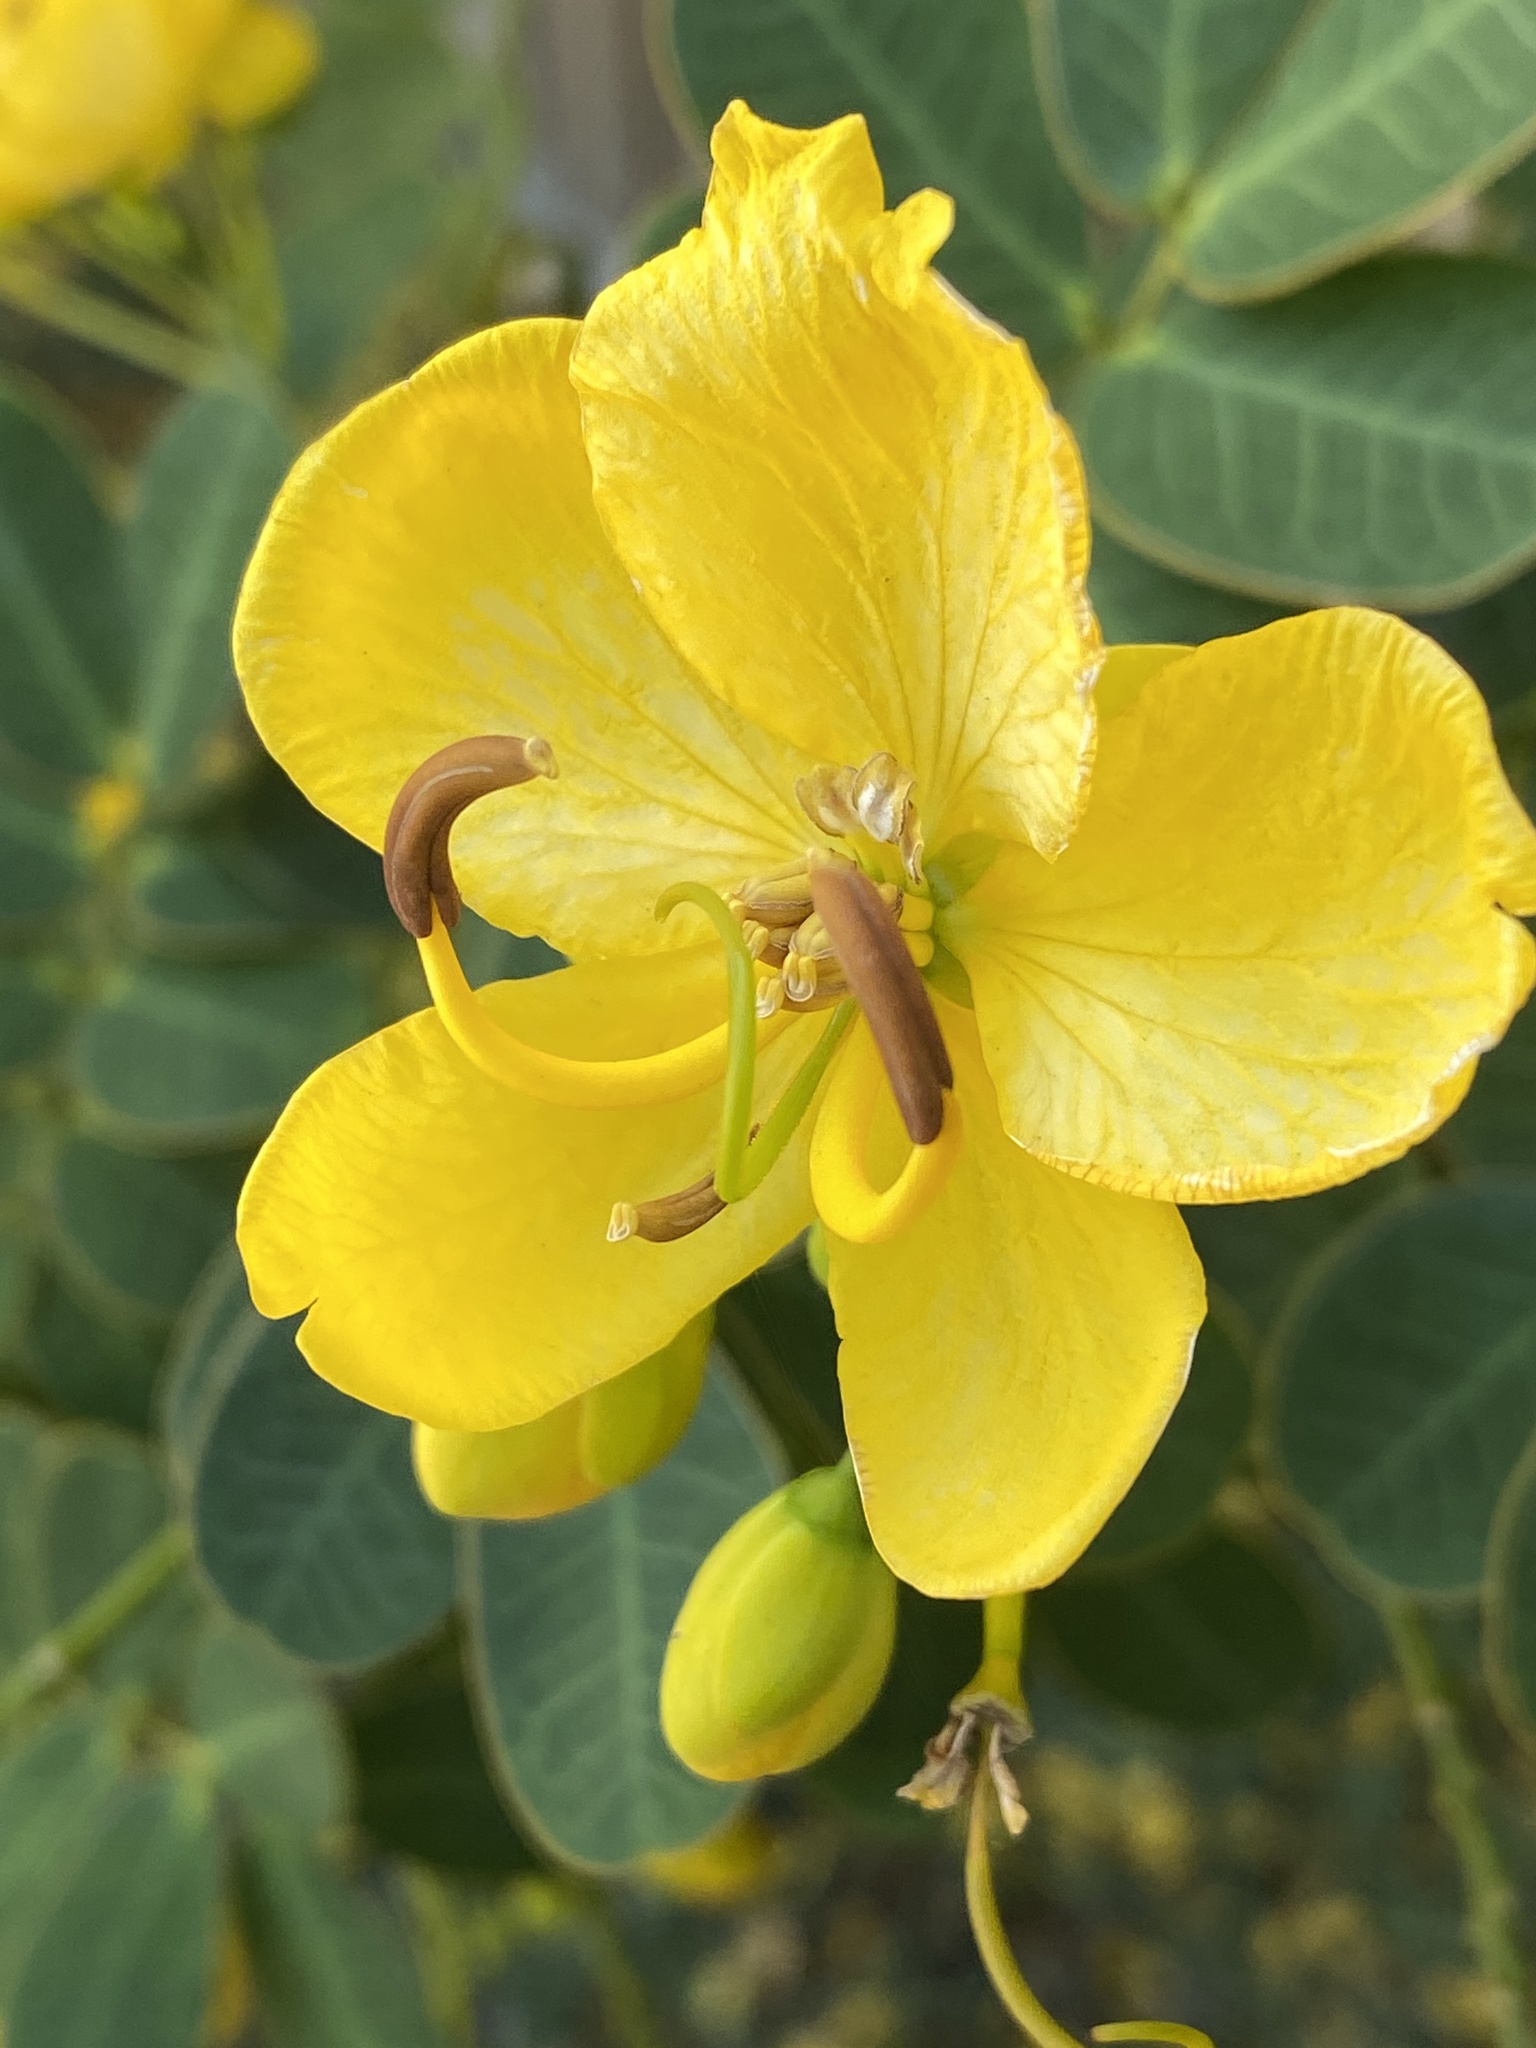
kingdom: Plantae
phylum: Tracheophyta
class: Magnoliopsida
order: Fabales
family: Fabaceae
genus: Senna
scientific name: Senna pendula
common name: Easter cassia
